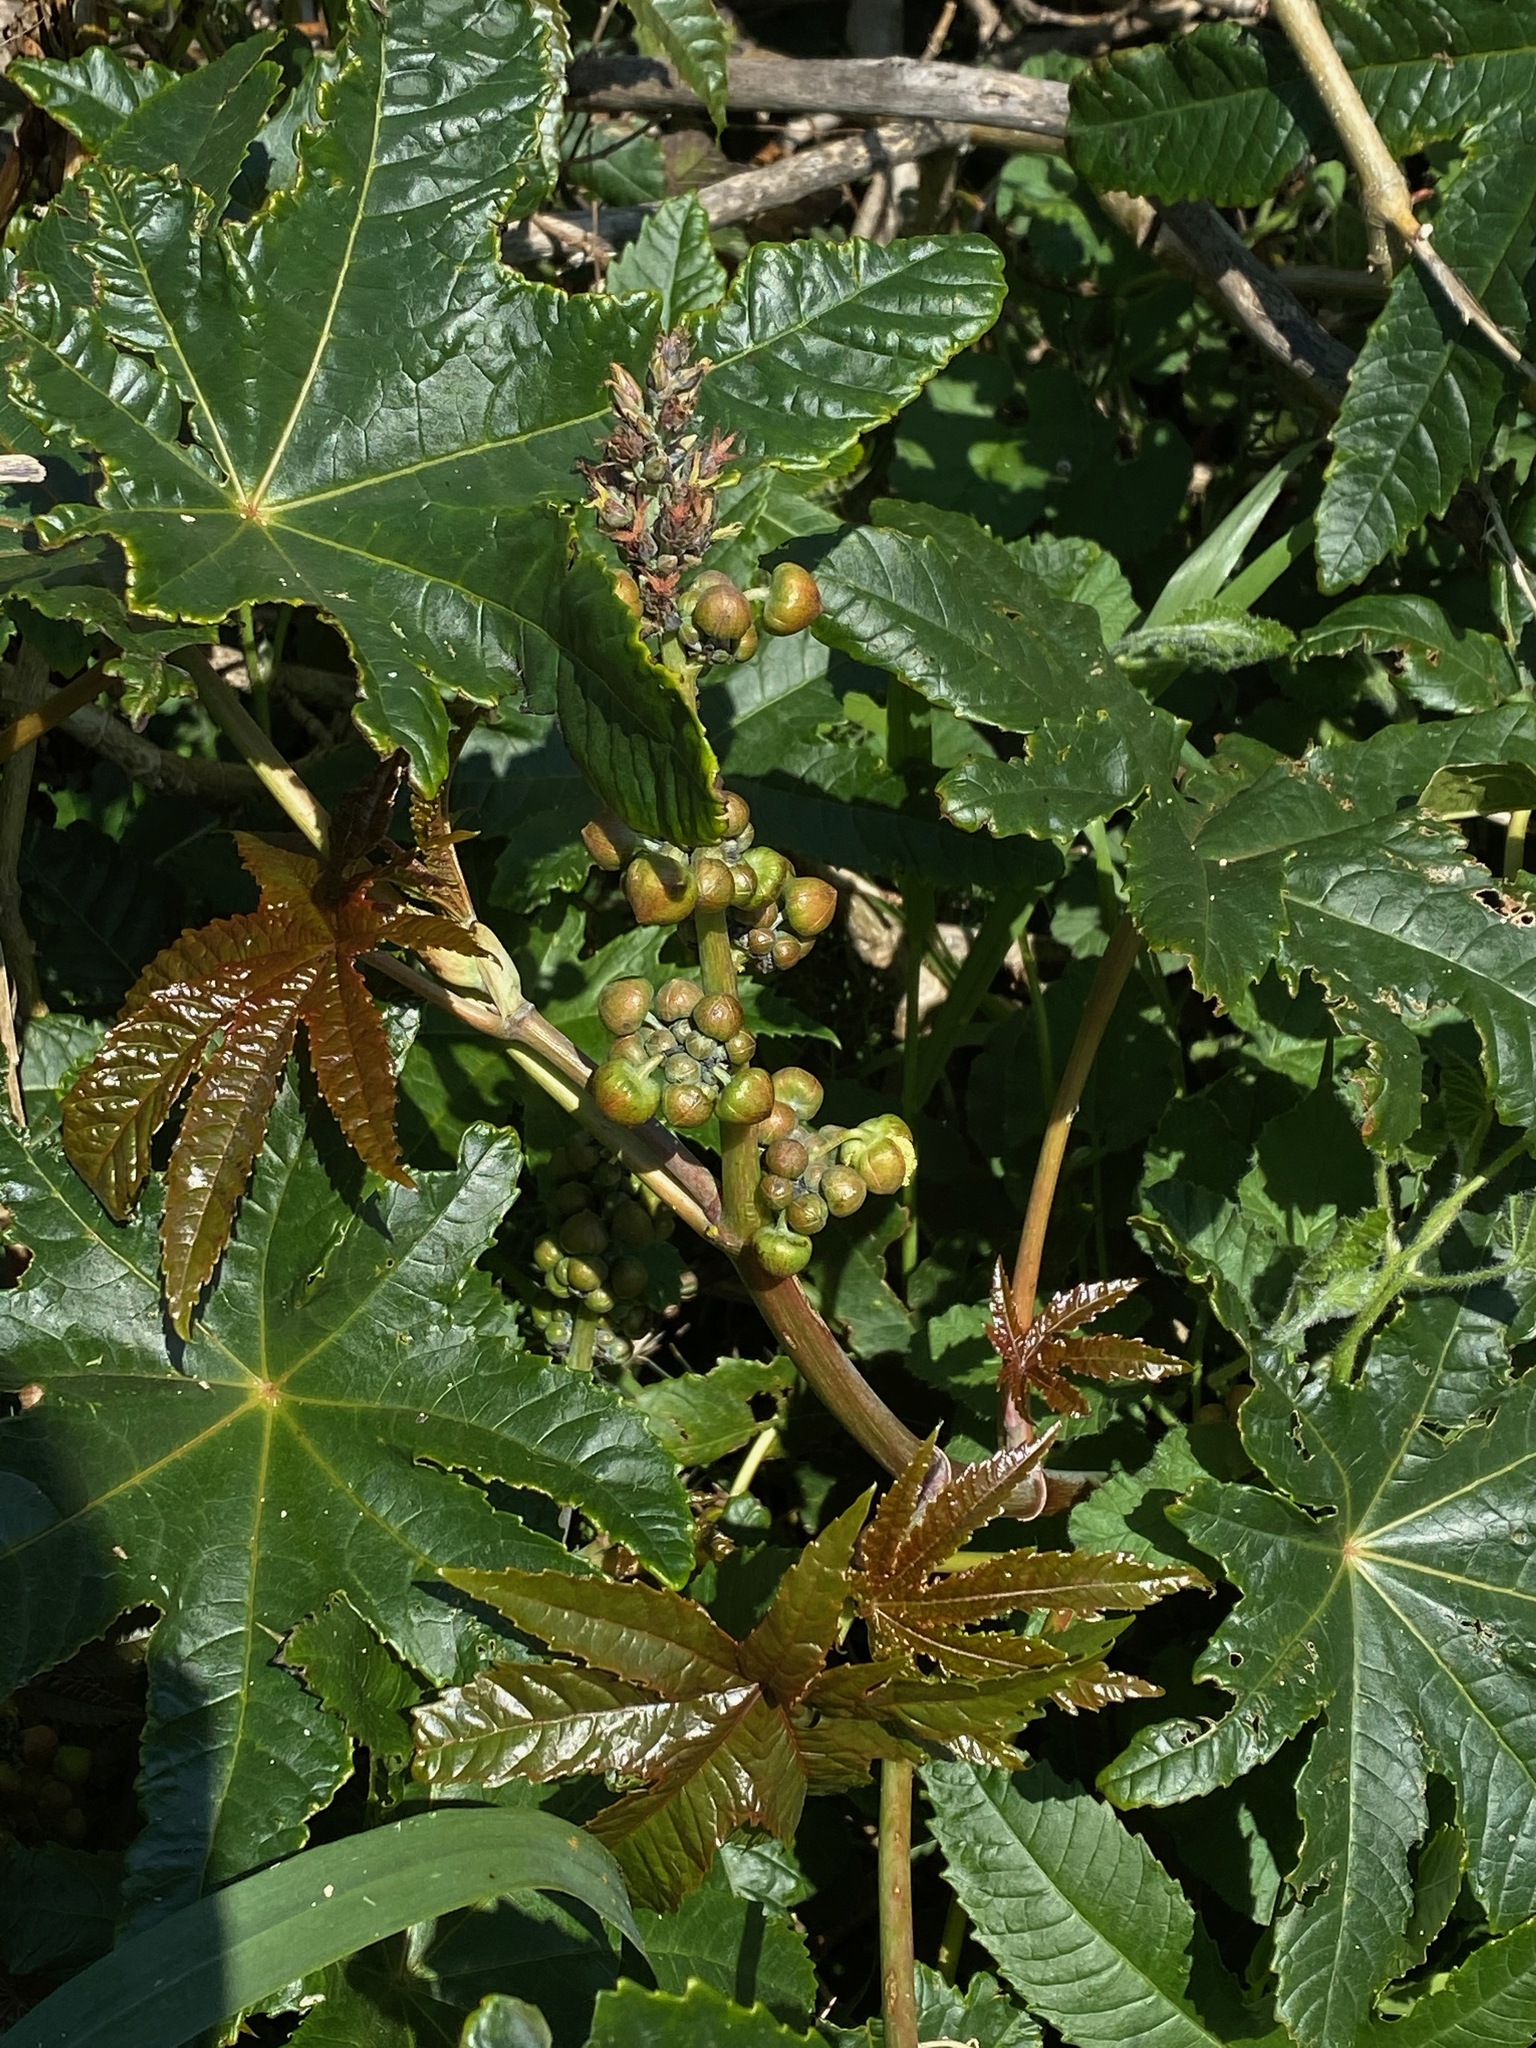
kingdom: Plantae
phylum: Tracheophyta
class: Magnoliopsida
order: Malpighiales
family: Euphorbiaceae
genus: Ricinus
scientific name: Ricinus communis
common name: Castor-oil-plant
